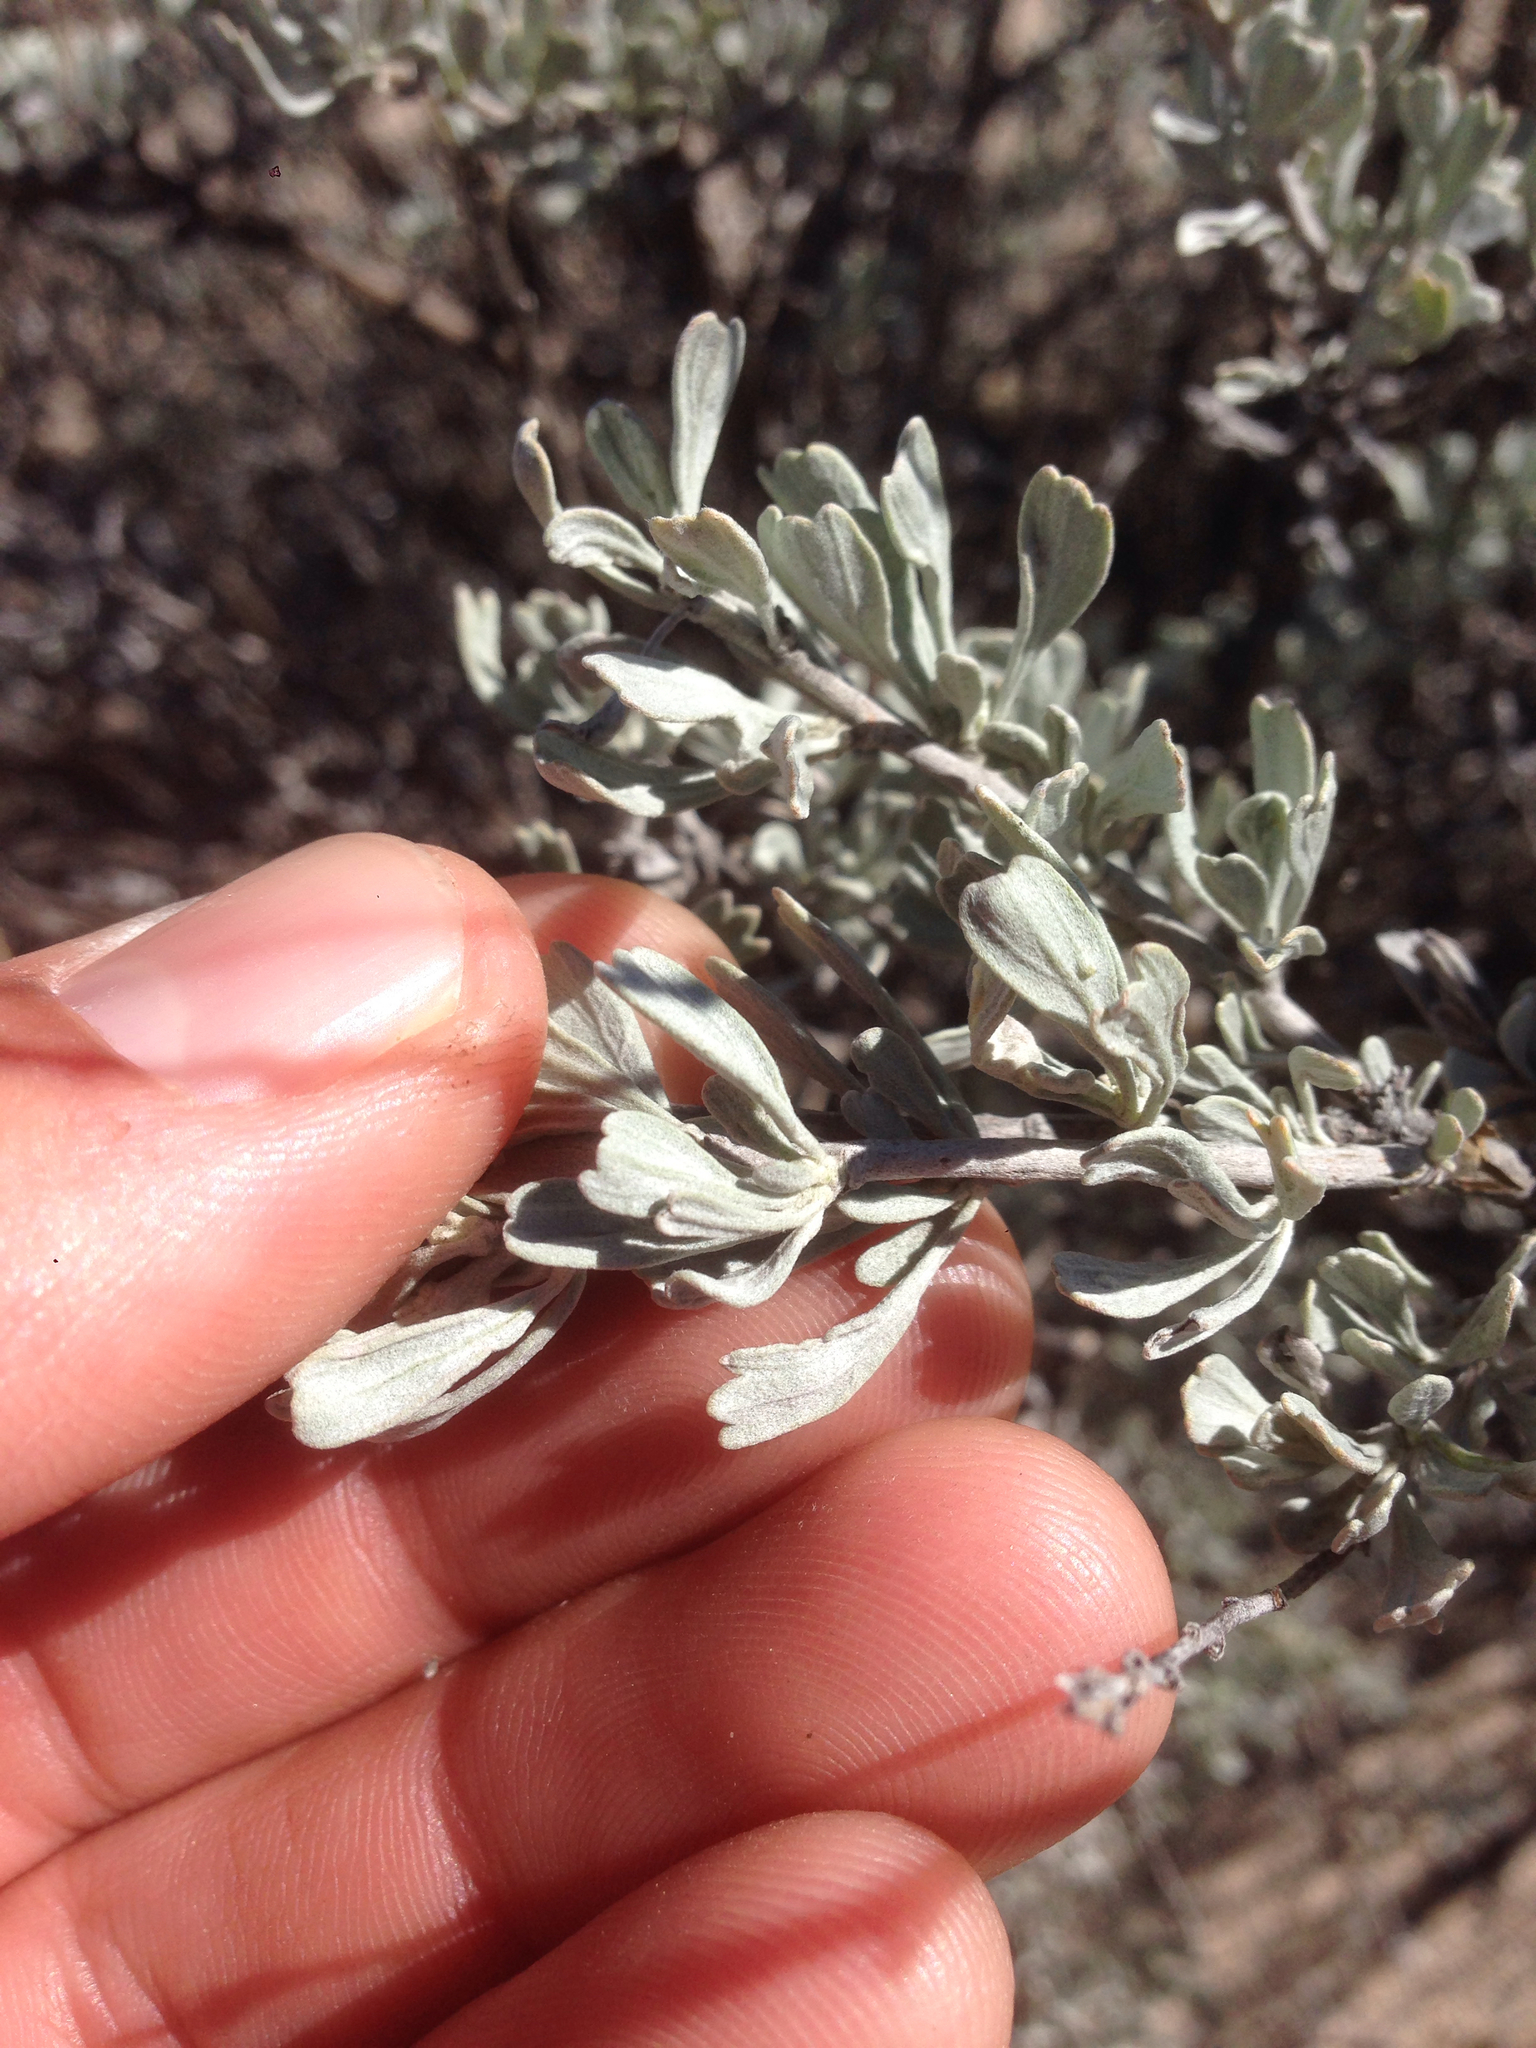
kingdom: Plantae
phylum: Tracheophyta
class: Magnoliopsida
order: Asterales
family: Asteraceae
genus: Artemisia
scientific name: Artemisia tridentata
